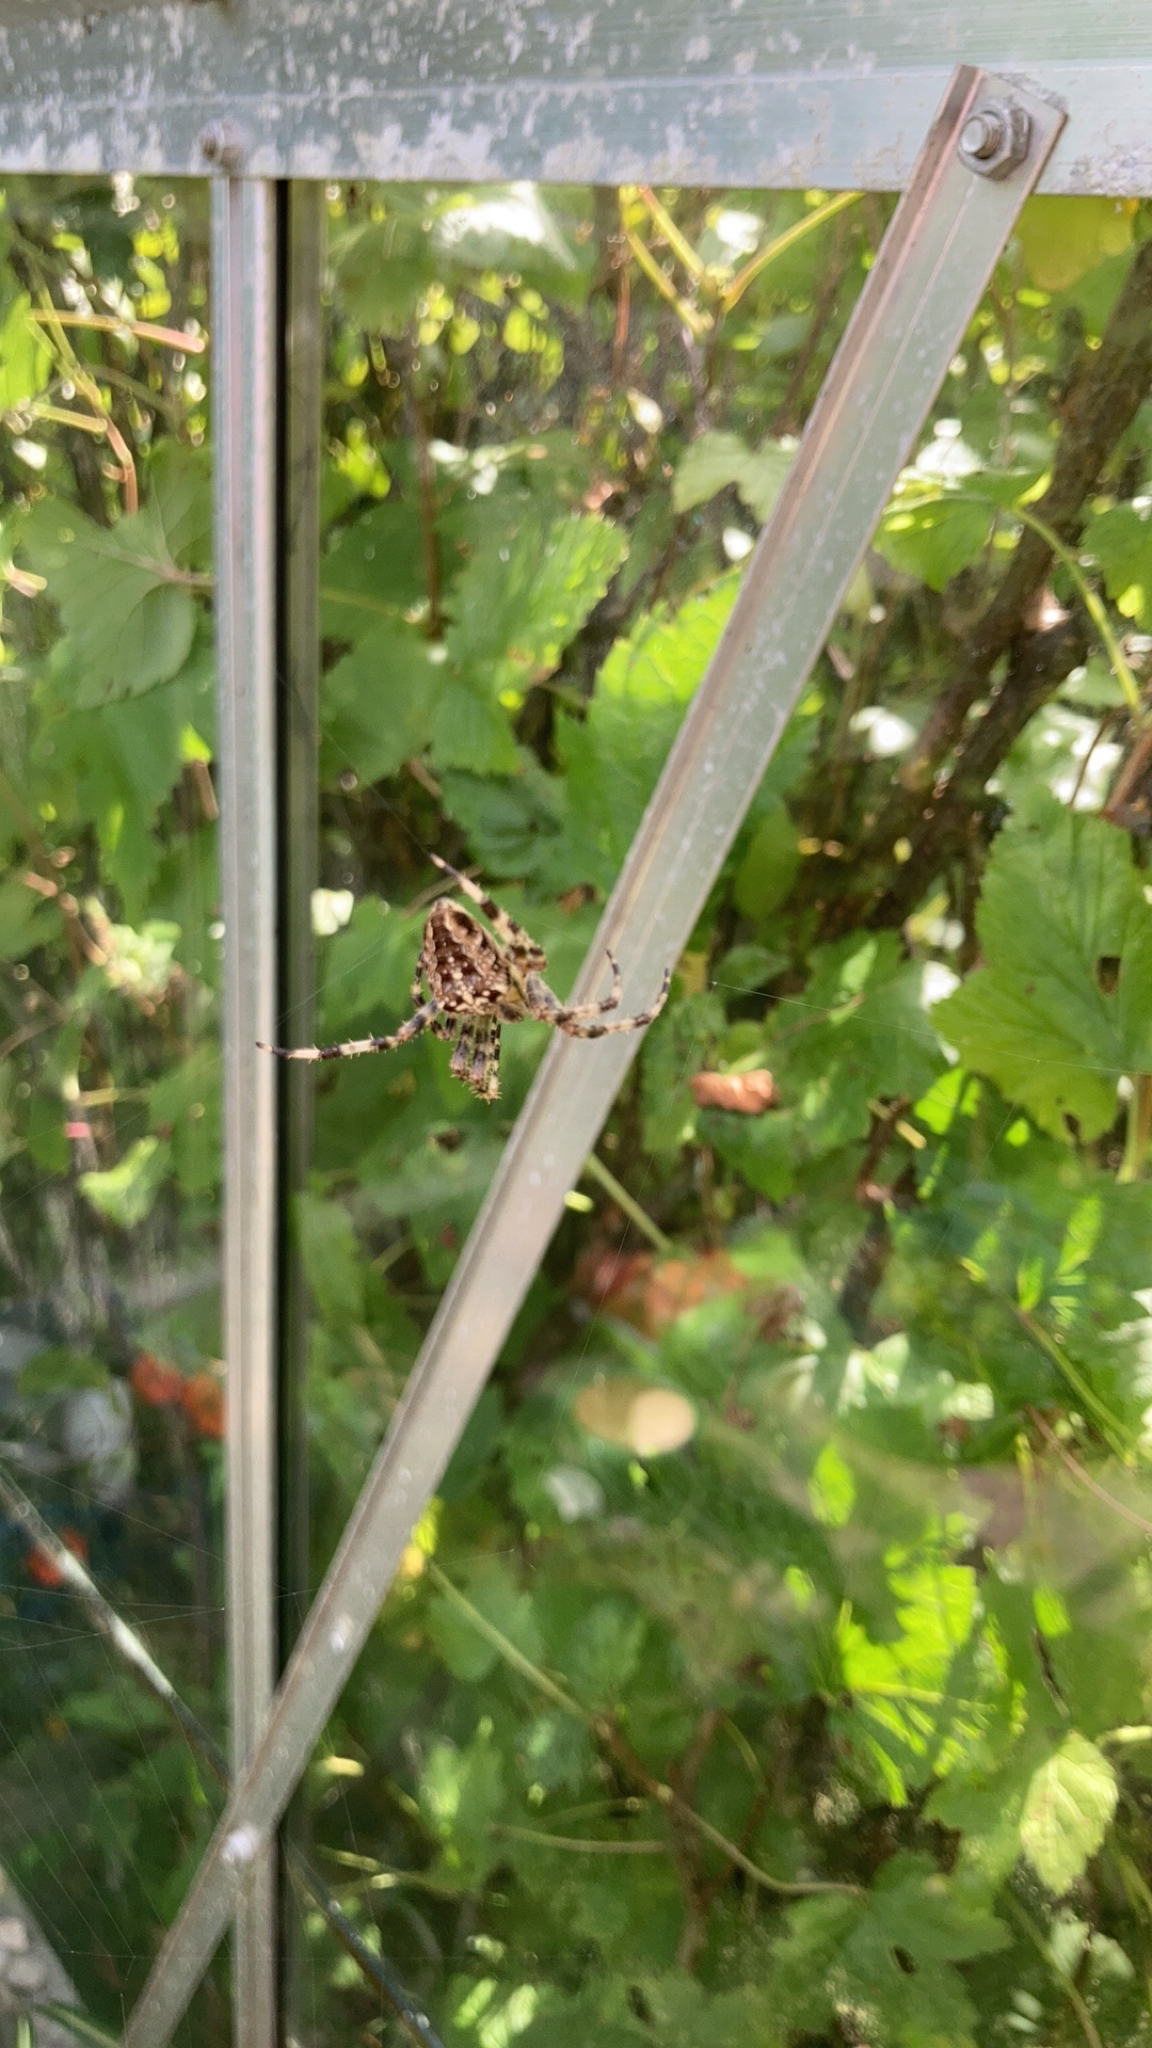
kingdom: Animalia
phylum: Arthropoda
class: Arachnida
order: Araneae
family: Araneidae
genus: Araneus
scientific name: Araneus diadematus
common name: Cross orbweaver
